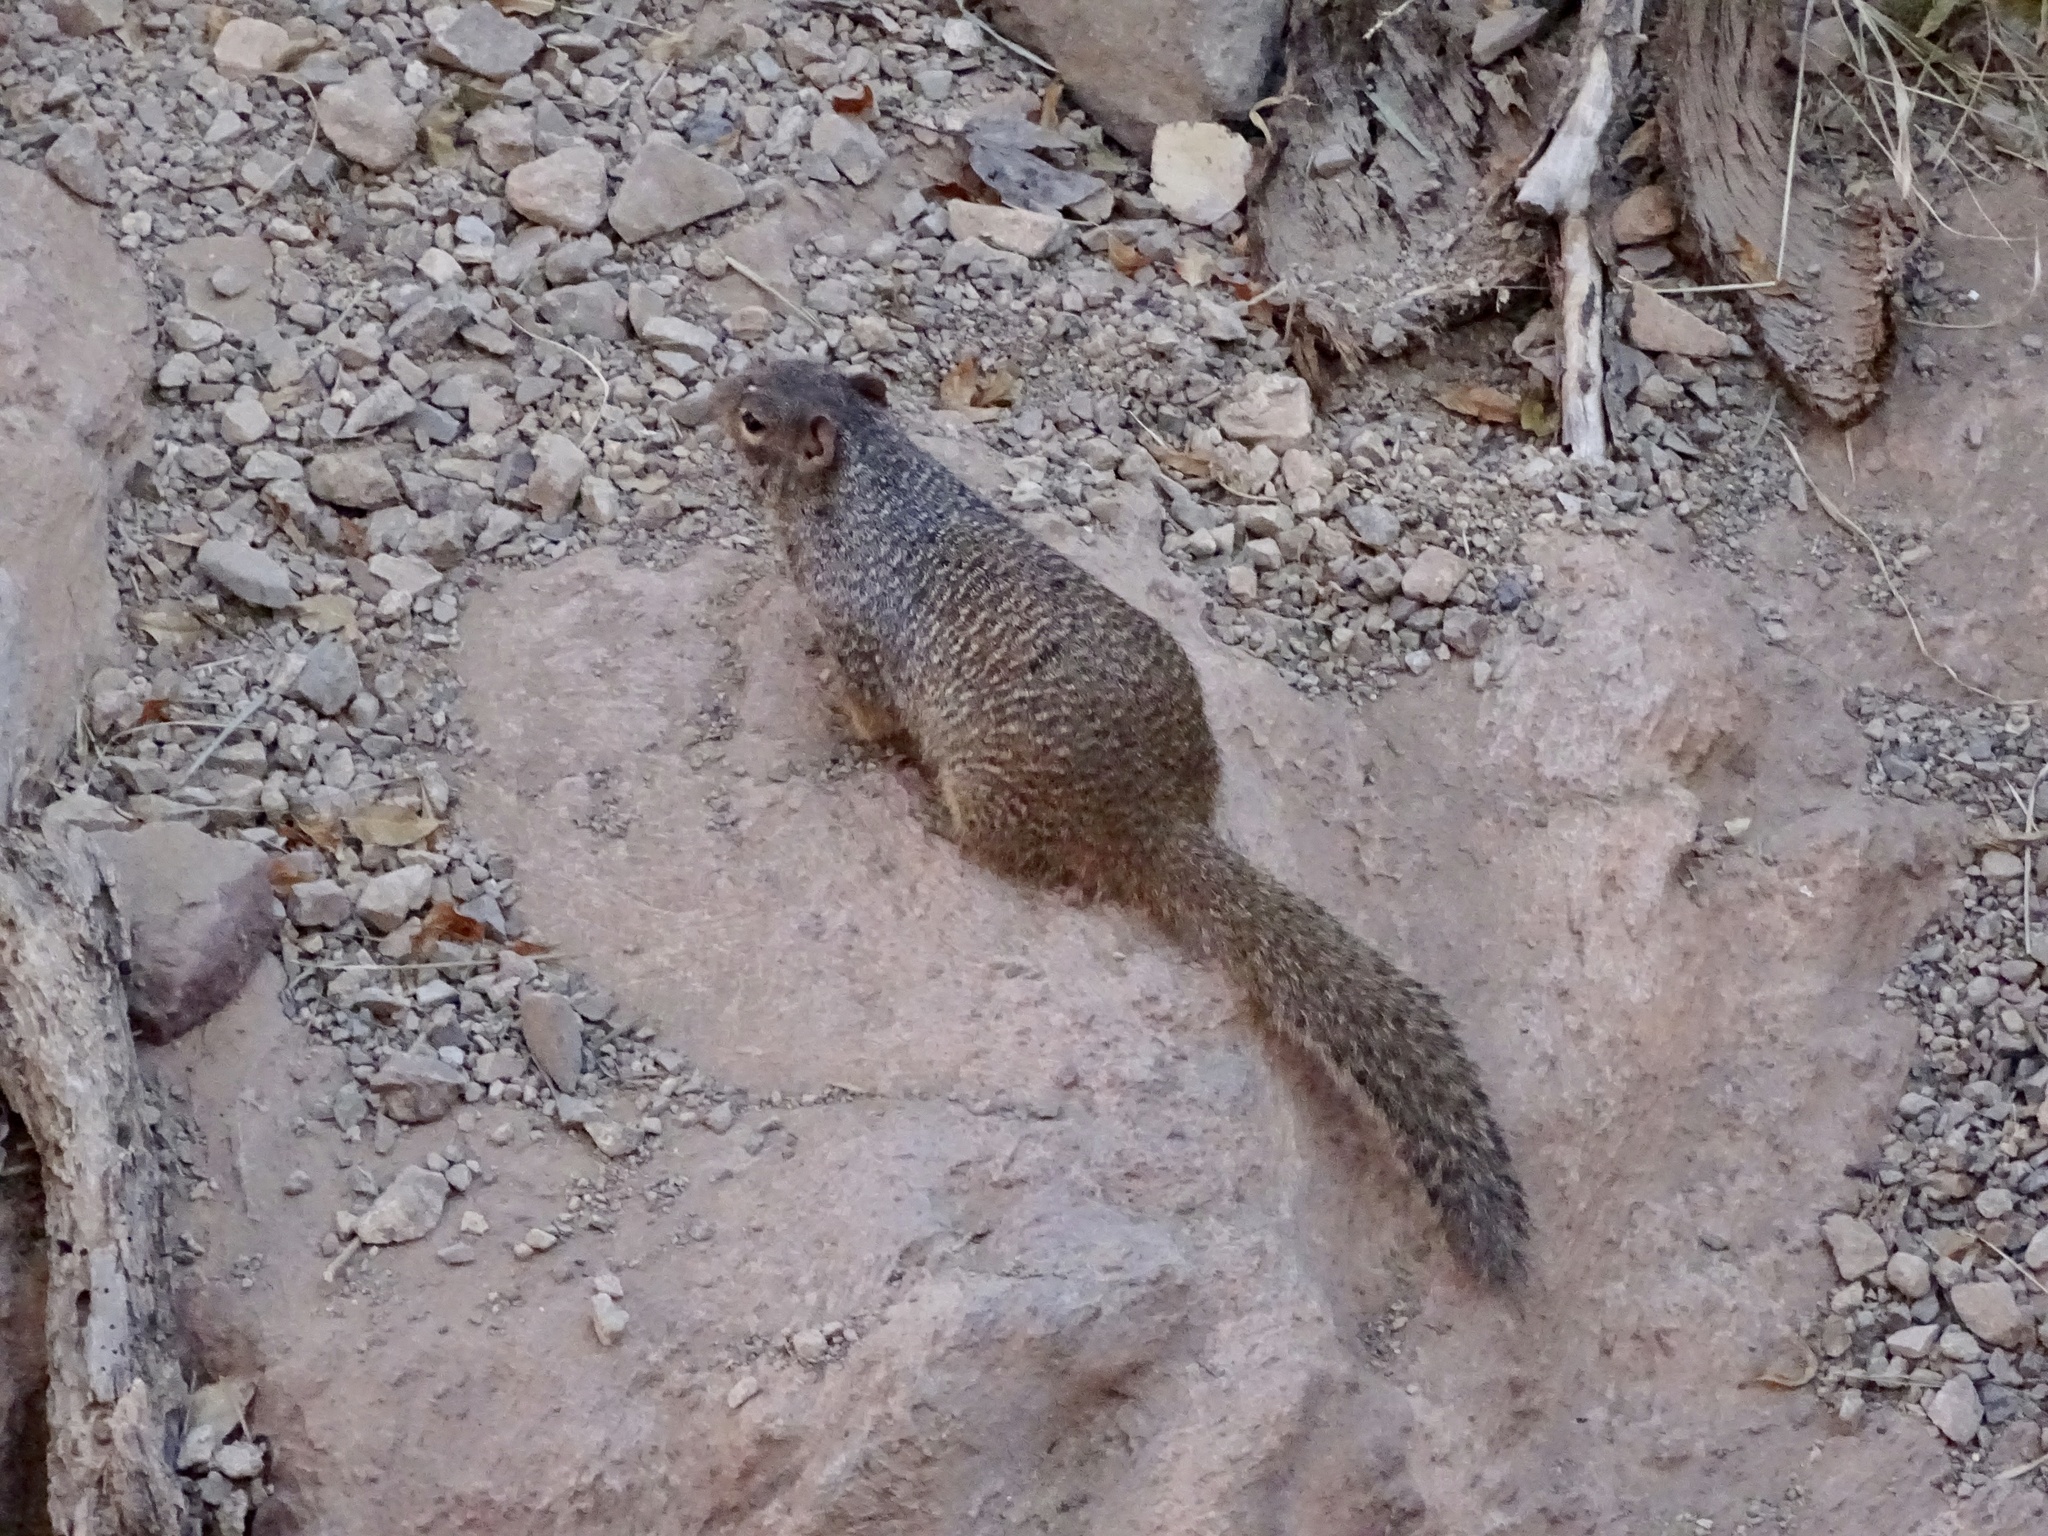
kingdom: Animalia
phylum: Chordata
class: Mammalia
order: Rodentia
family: Sciuridae
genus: Otospermophilus
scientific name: Otospermophilus variegatus
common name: Rock squirrel
